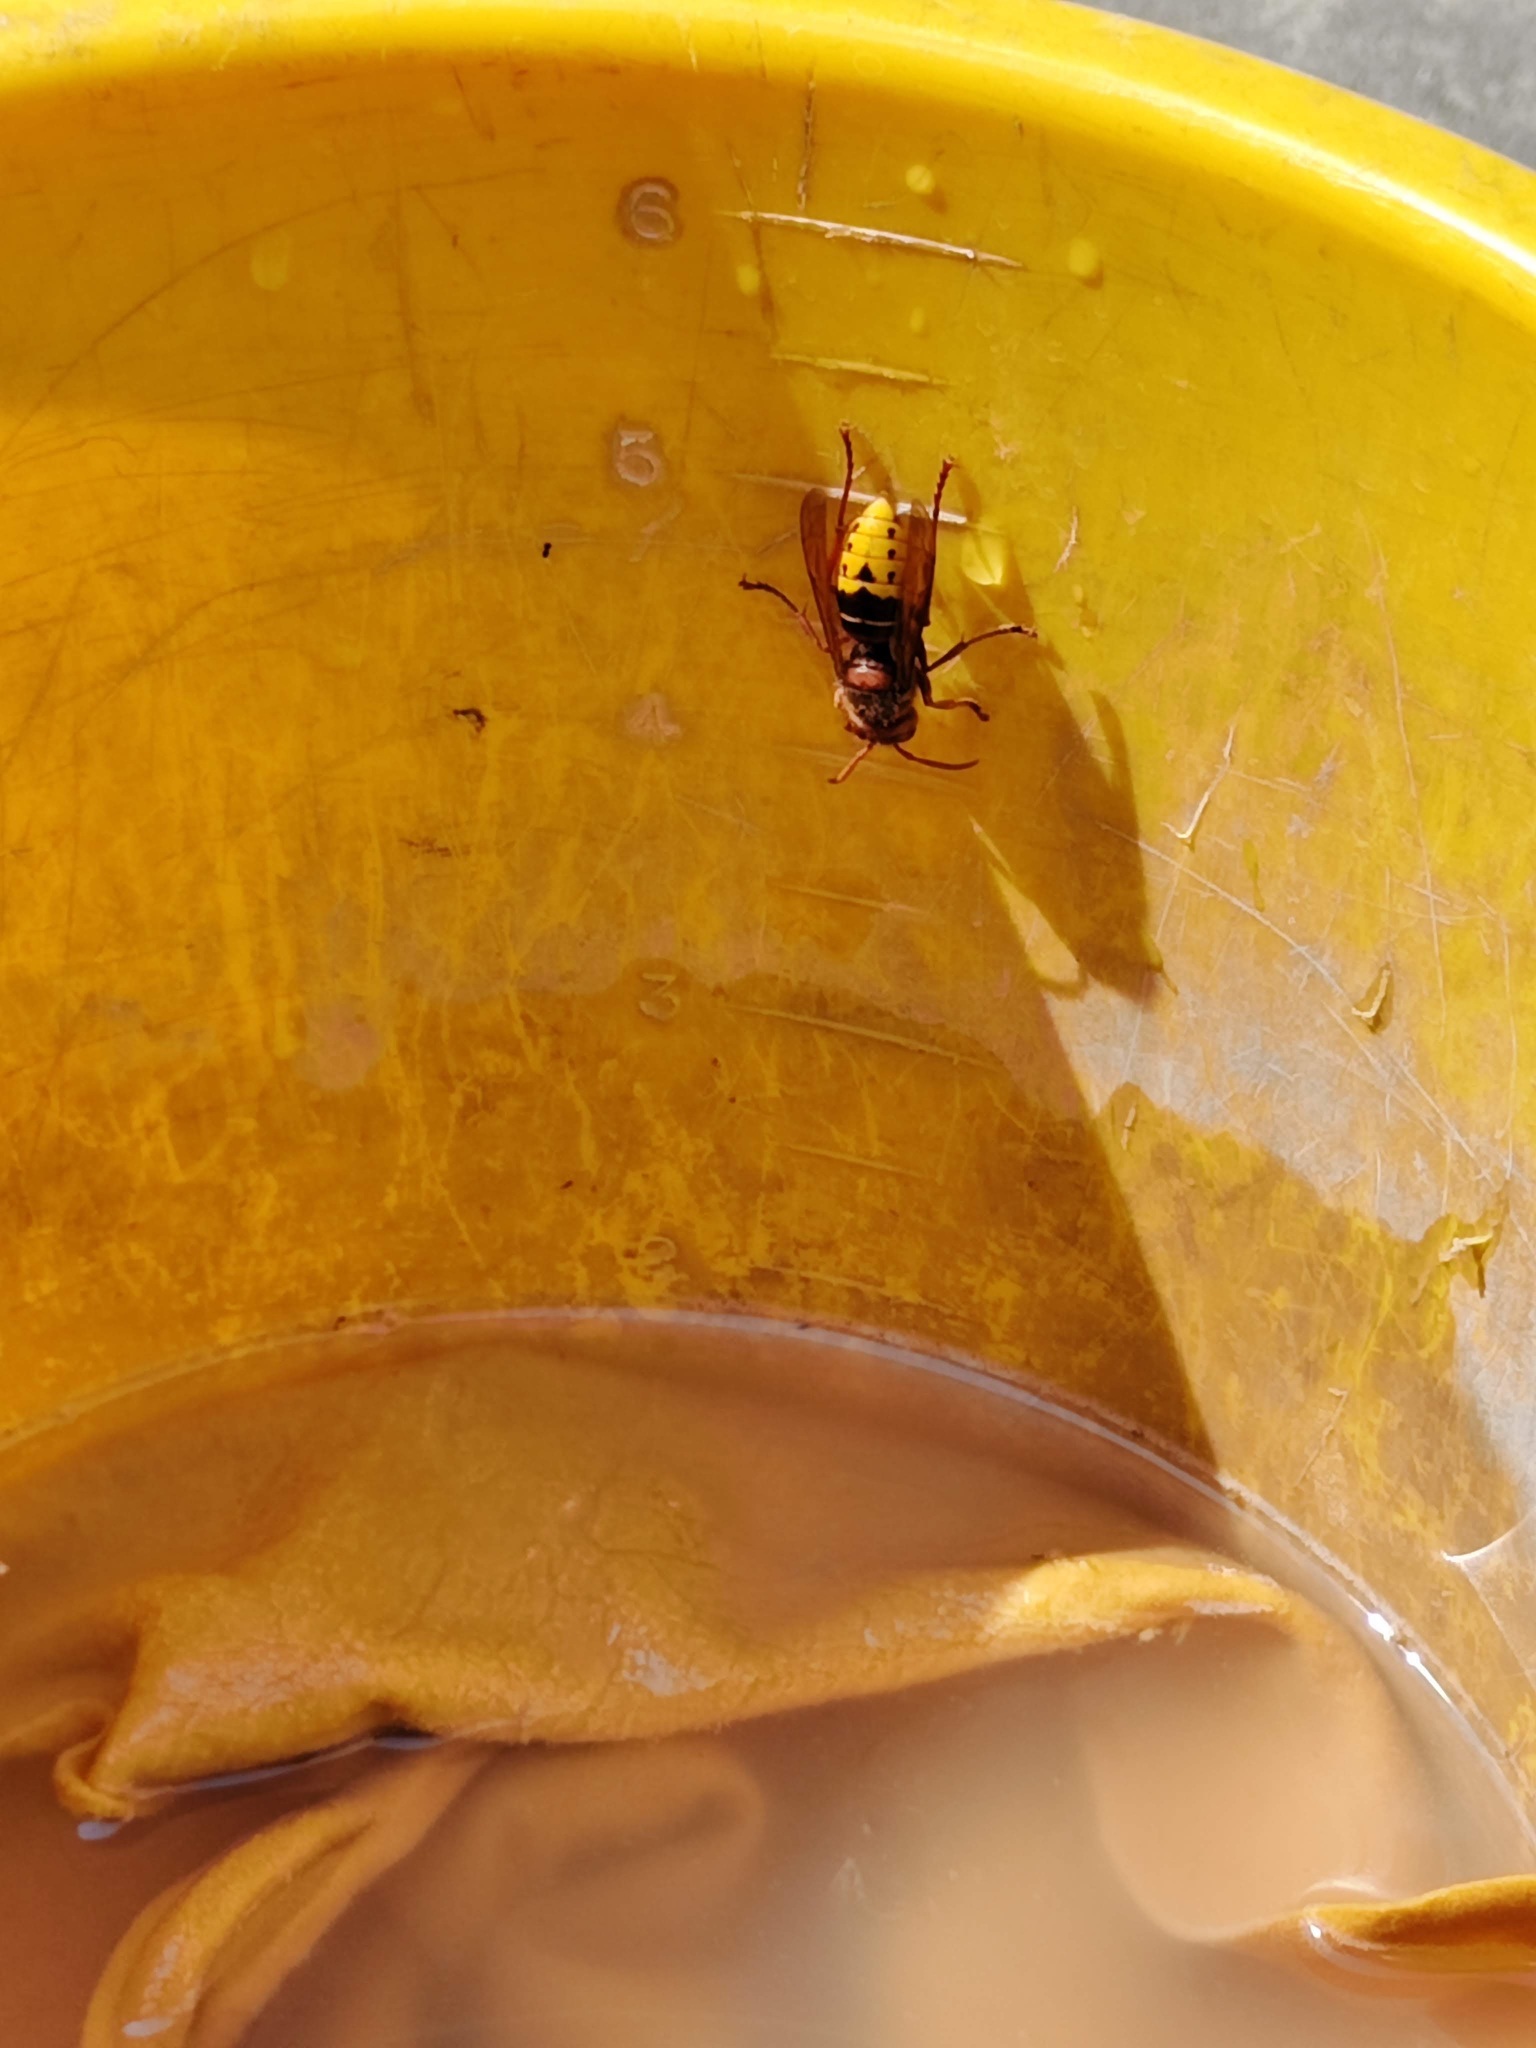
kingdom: Animalia
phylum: Arthropoda
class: Insecta
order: Hymenoptera
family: Vespidae
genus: Vespa
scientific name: Vespa crabro
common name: Hornet
